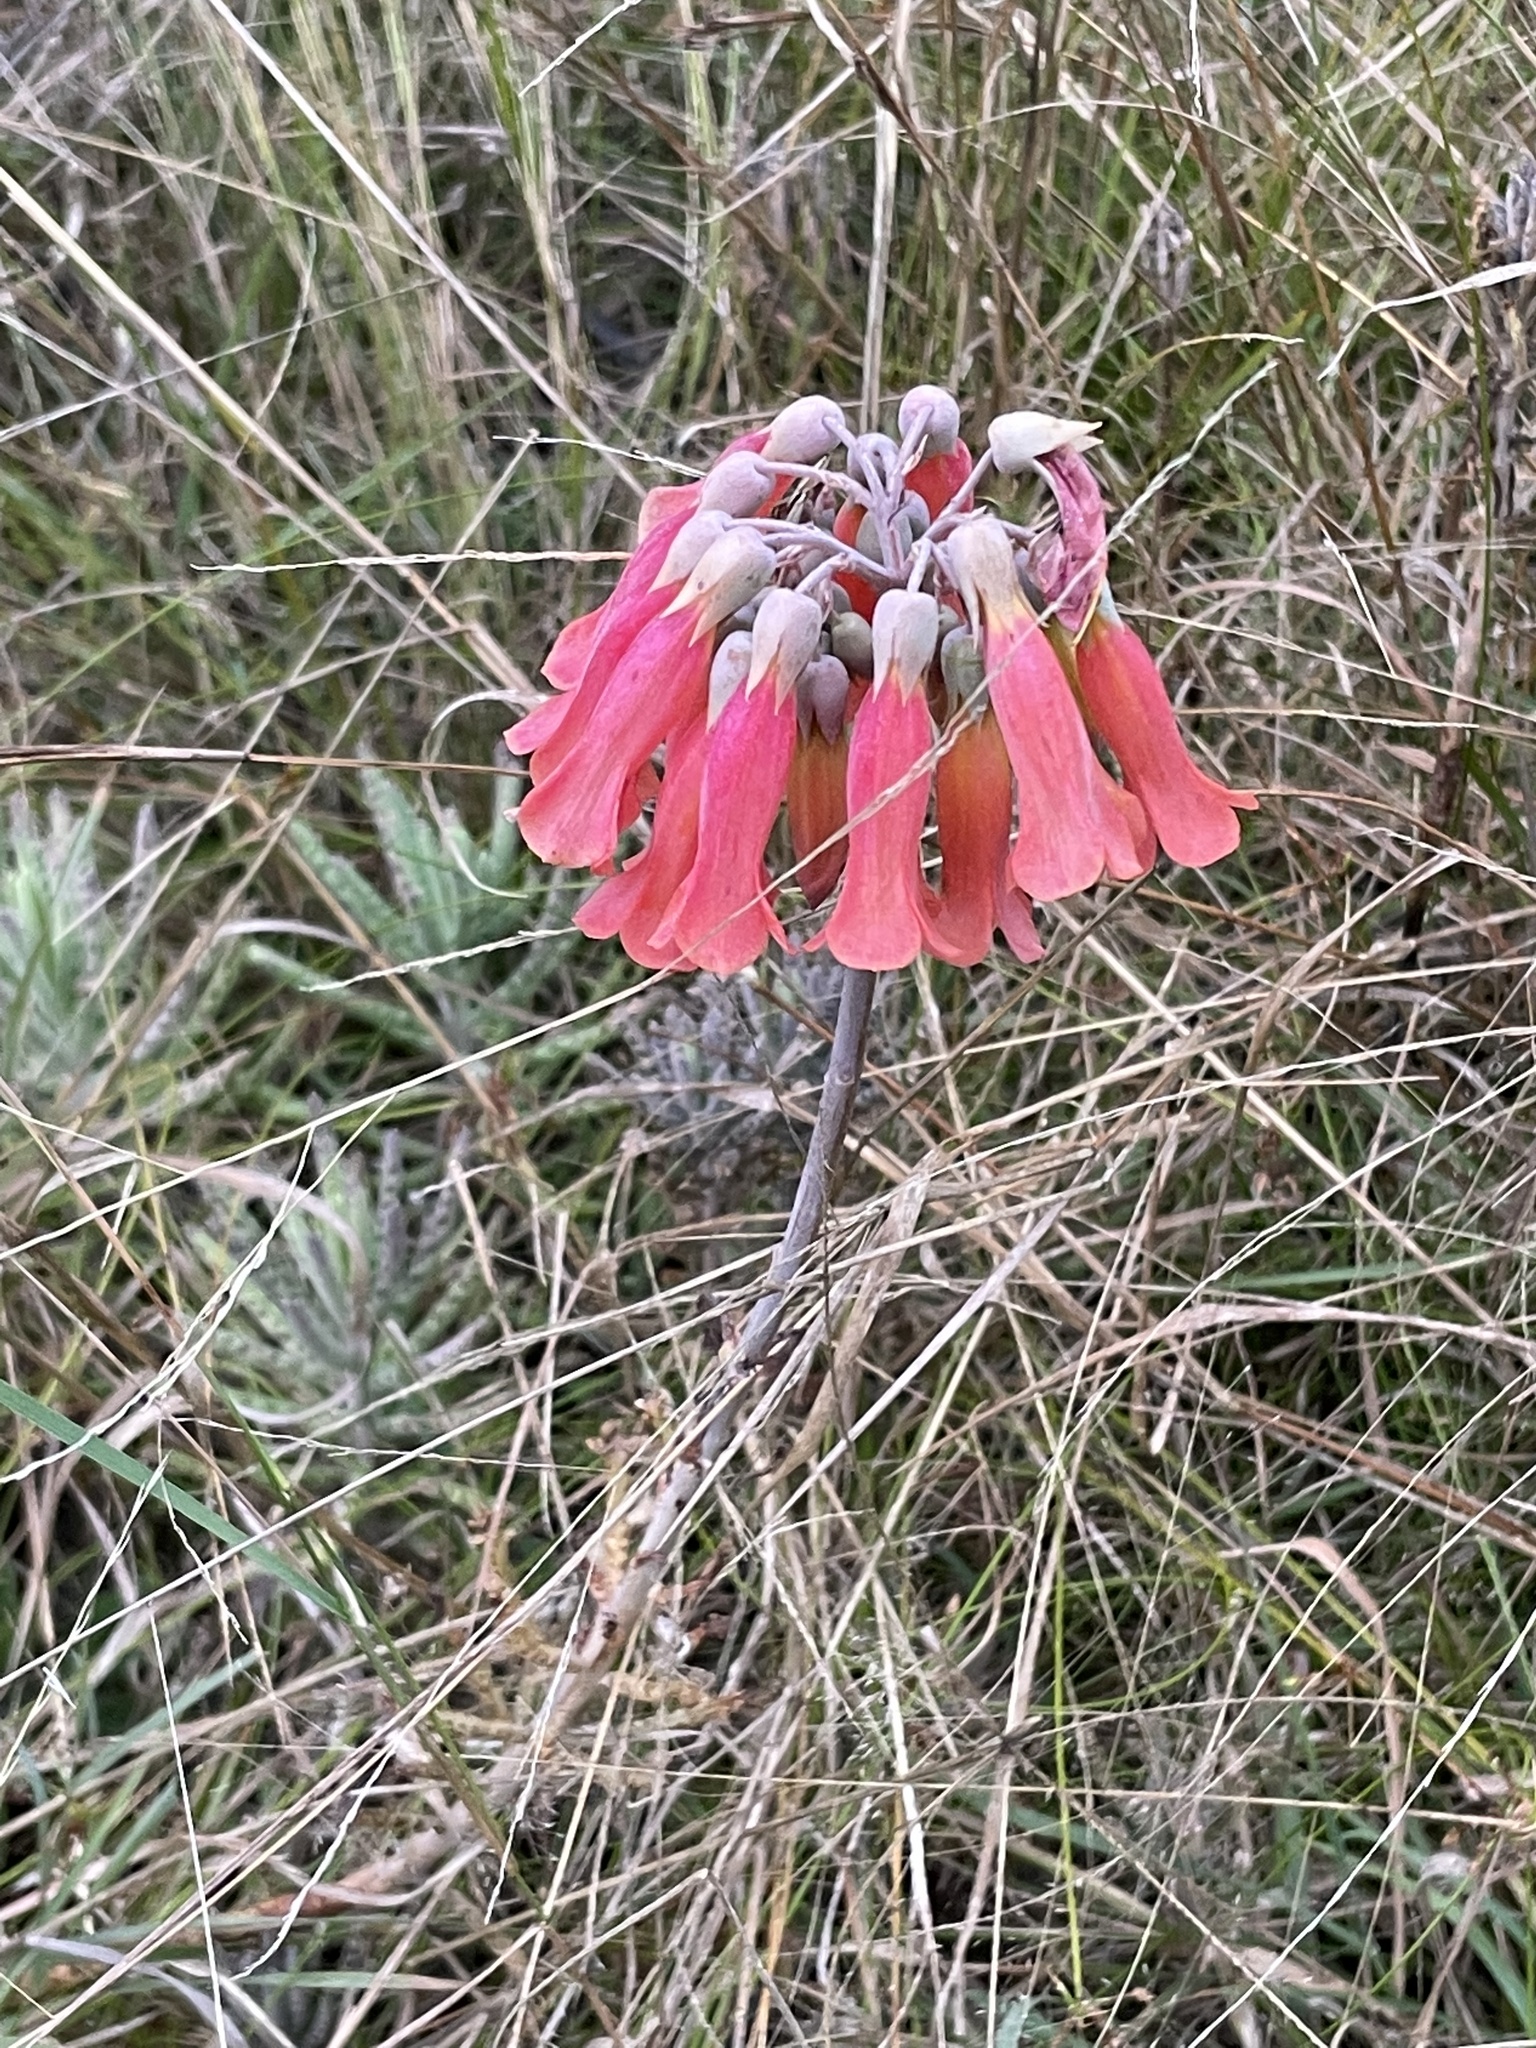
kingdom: Plantae
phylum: Tracheophyta
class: Magnoliopsida
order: Saxifragales
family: Crassulaceae
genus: Kalanchoe
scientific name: Kalanchoe delagoensis
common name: Chandelier plant
